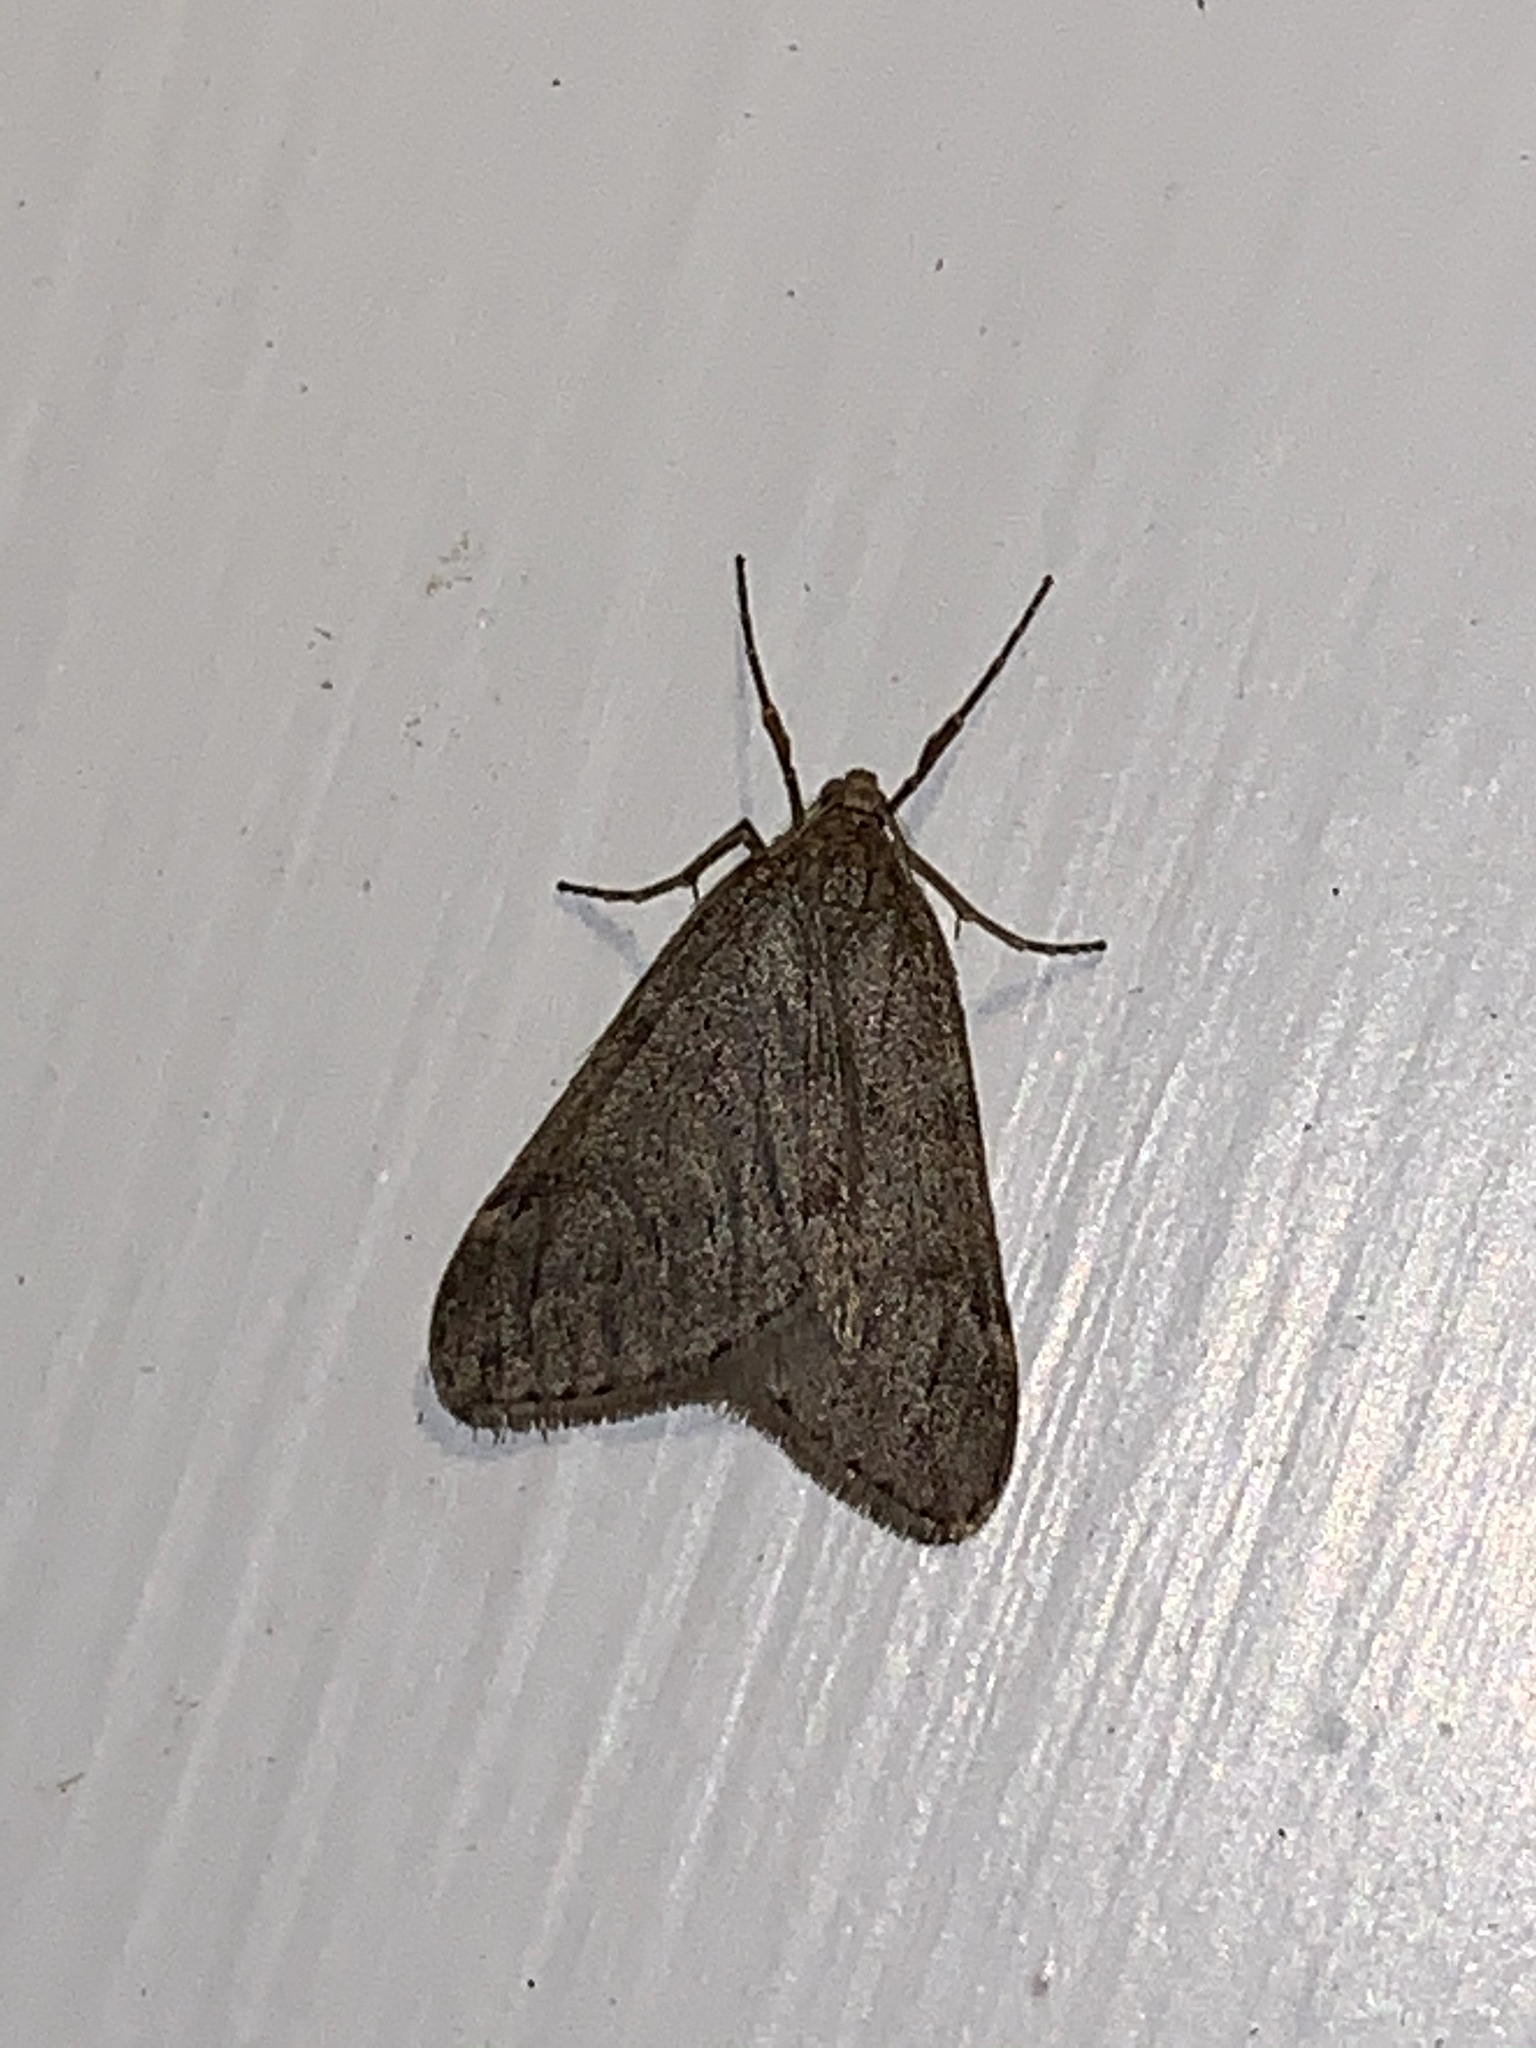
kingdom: Animalia
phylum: Arthropoda
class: Insecta
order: Lepidoptera
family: Geometridae
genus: Alsophila
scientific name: Alsophila pometaria
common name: Fall cankerworm
